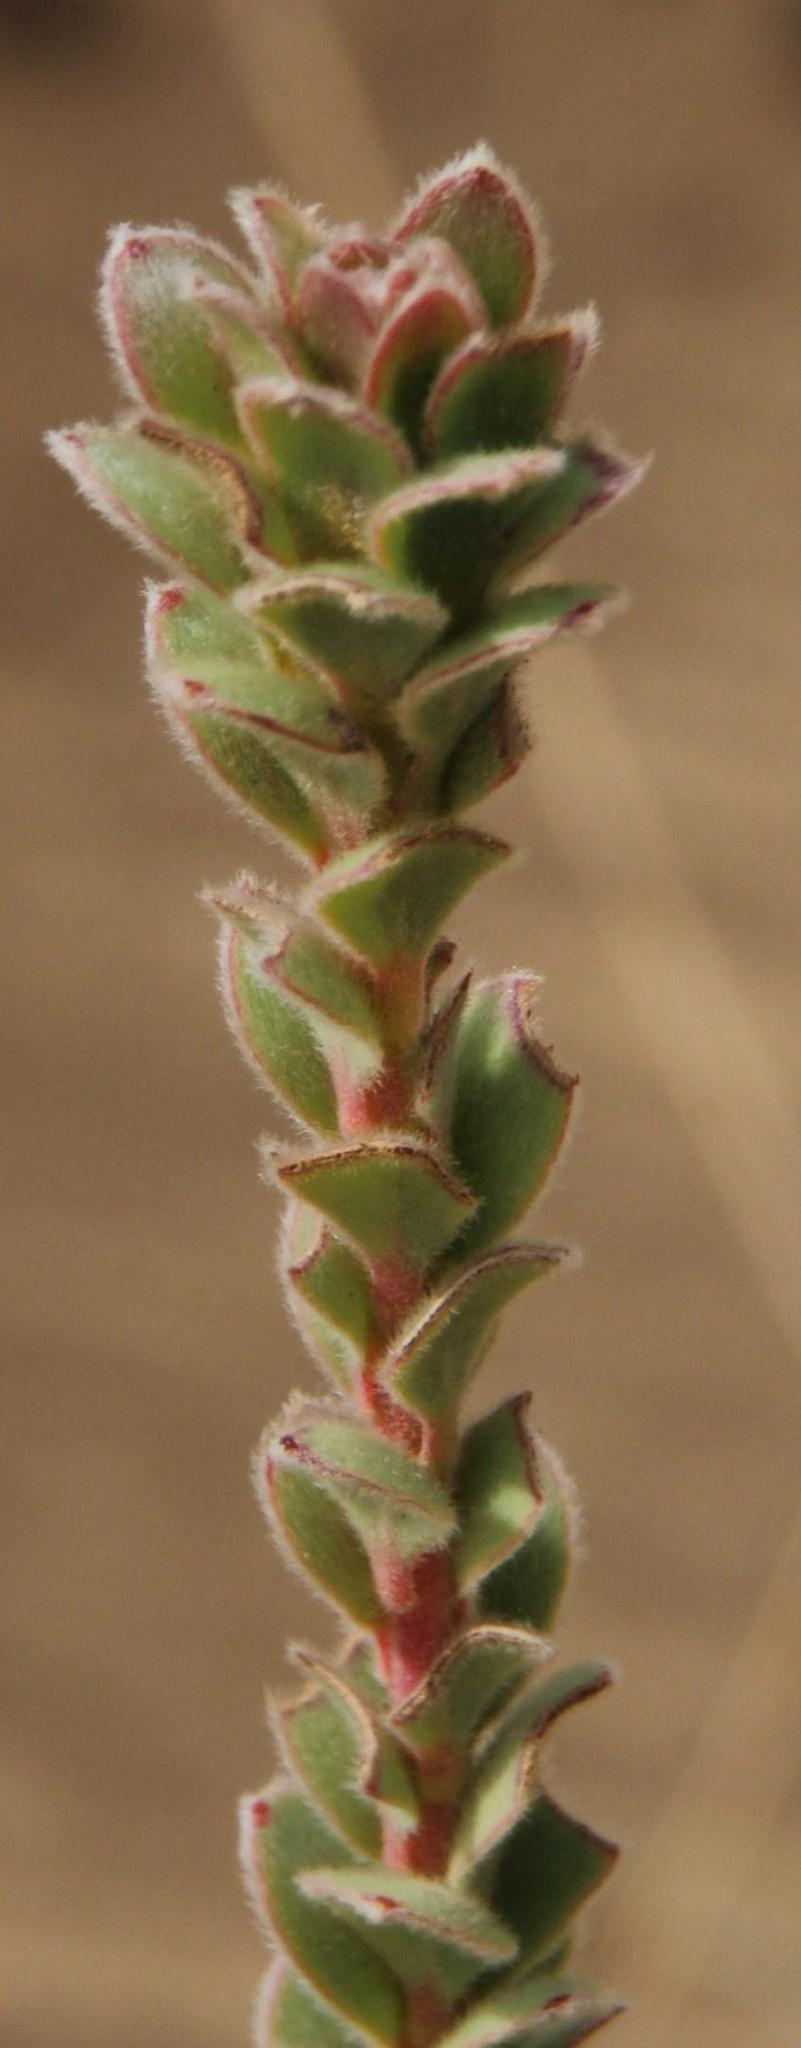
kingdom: Plantae
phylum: Tracheophyta
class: Magnoliopsida
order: Proteales
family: Proteaceae
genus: Leucadendron
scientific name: Leucadendron concavum
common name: Pakhuis conebush
